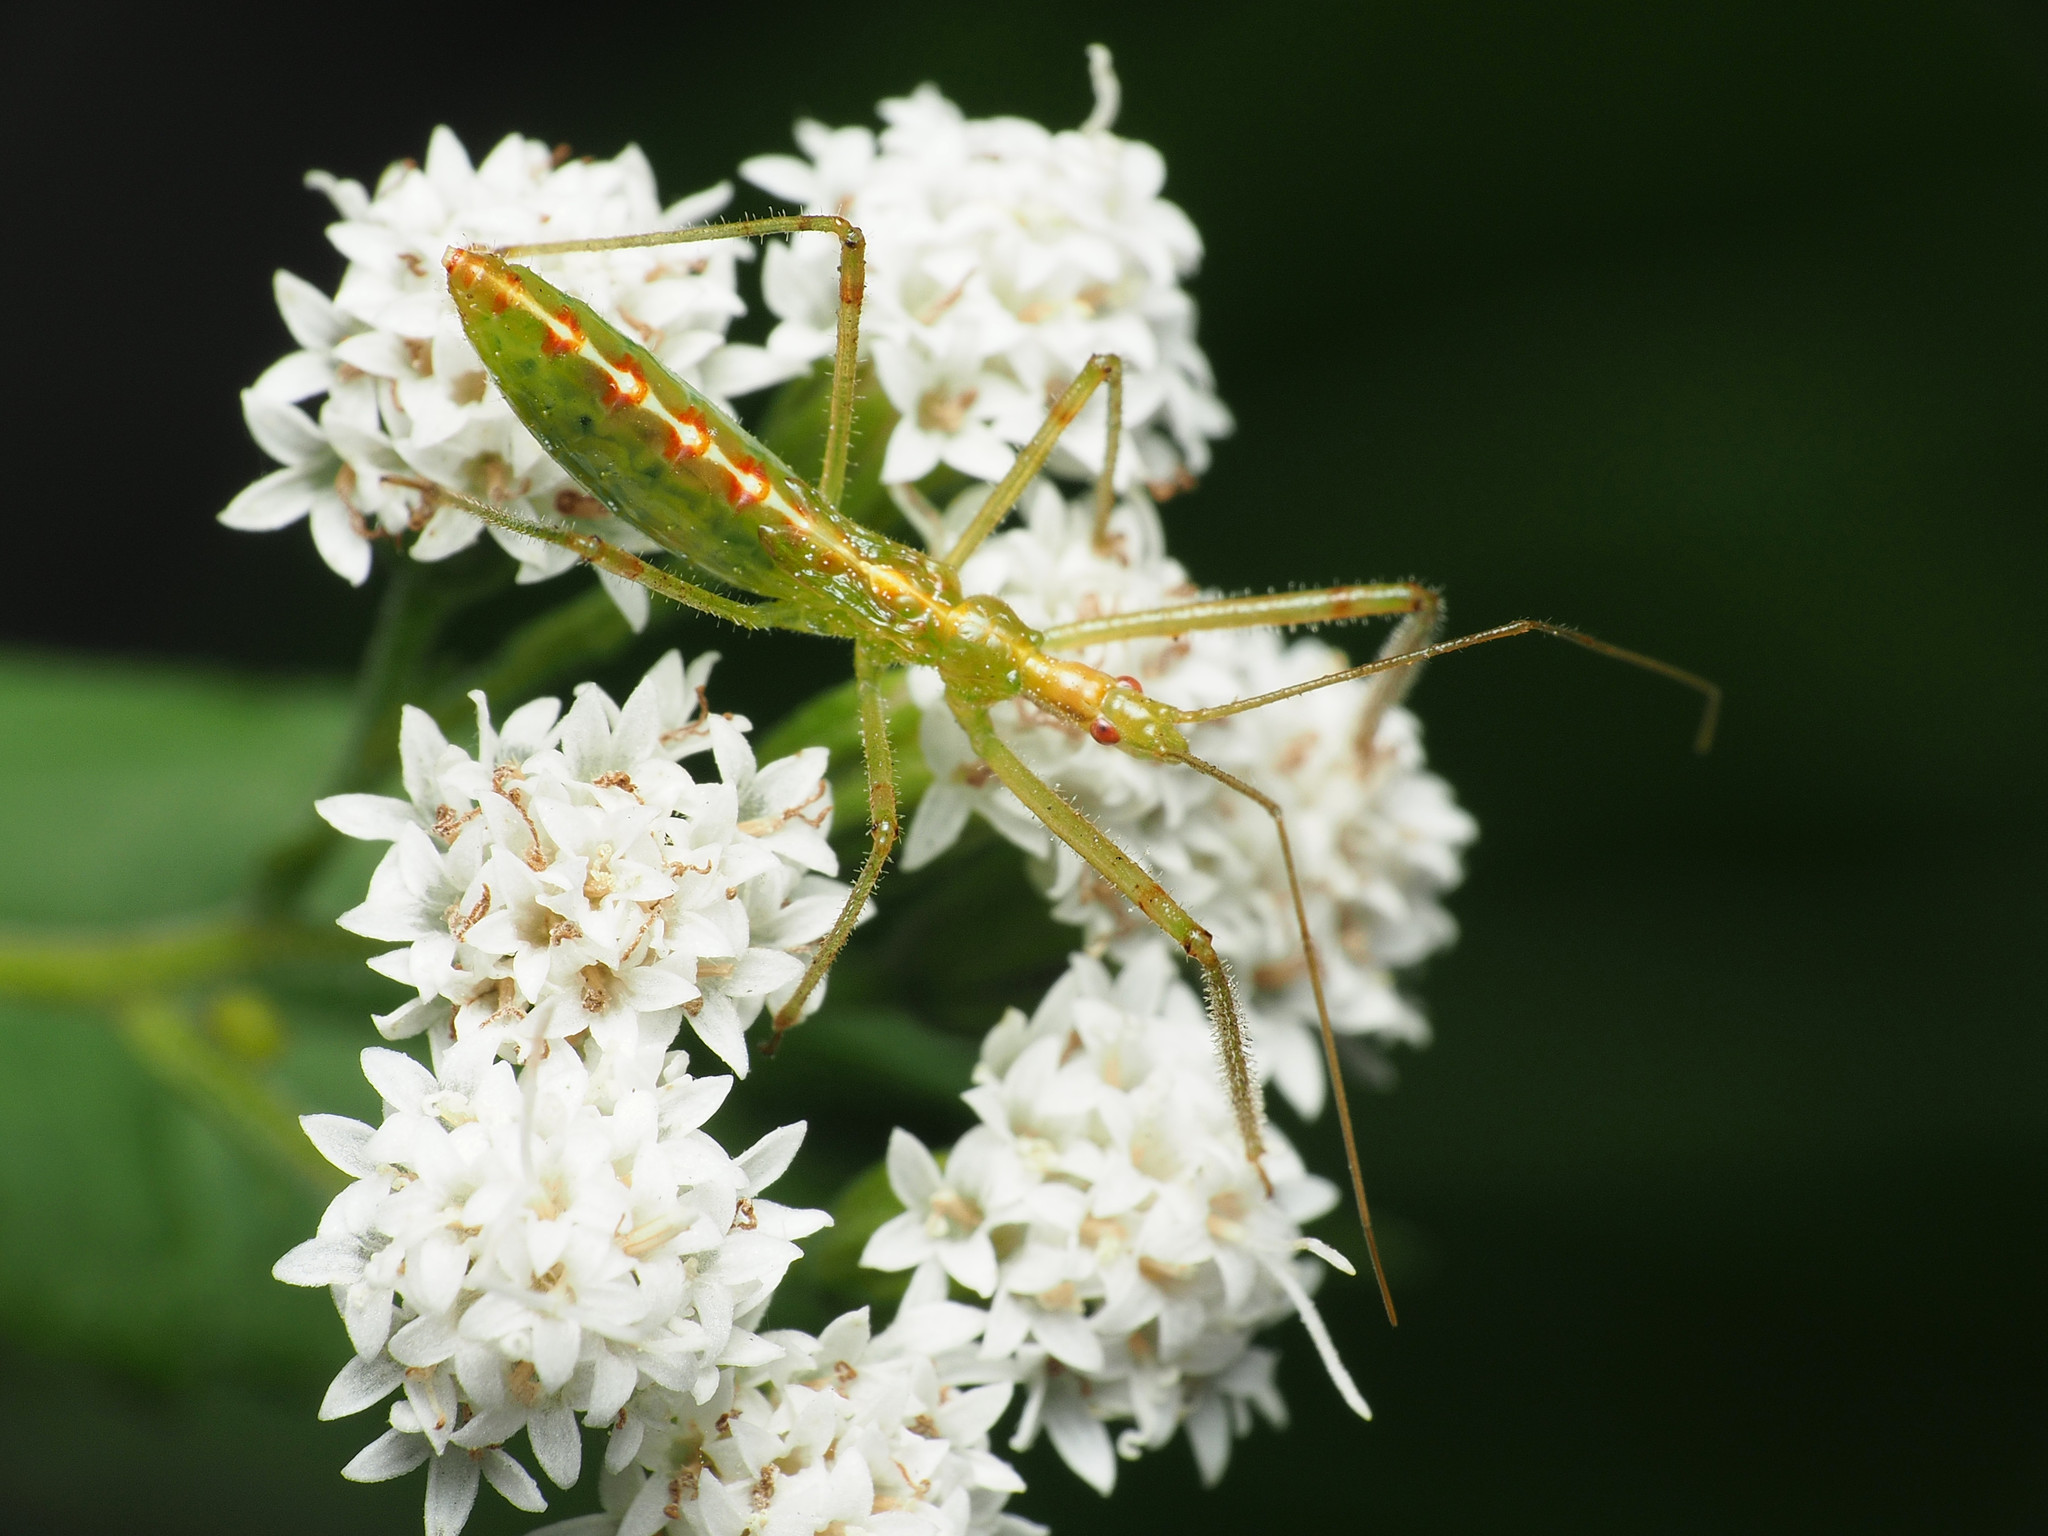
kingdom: Animalia
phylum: Arthropoda
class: Insecta
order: Hemiptera
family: Reduviidae
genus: Zelus
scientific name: Zelus luridus
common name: Pale green assassin bug
